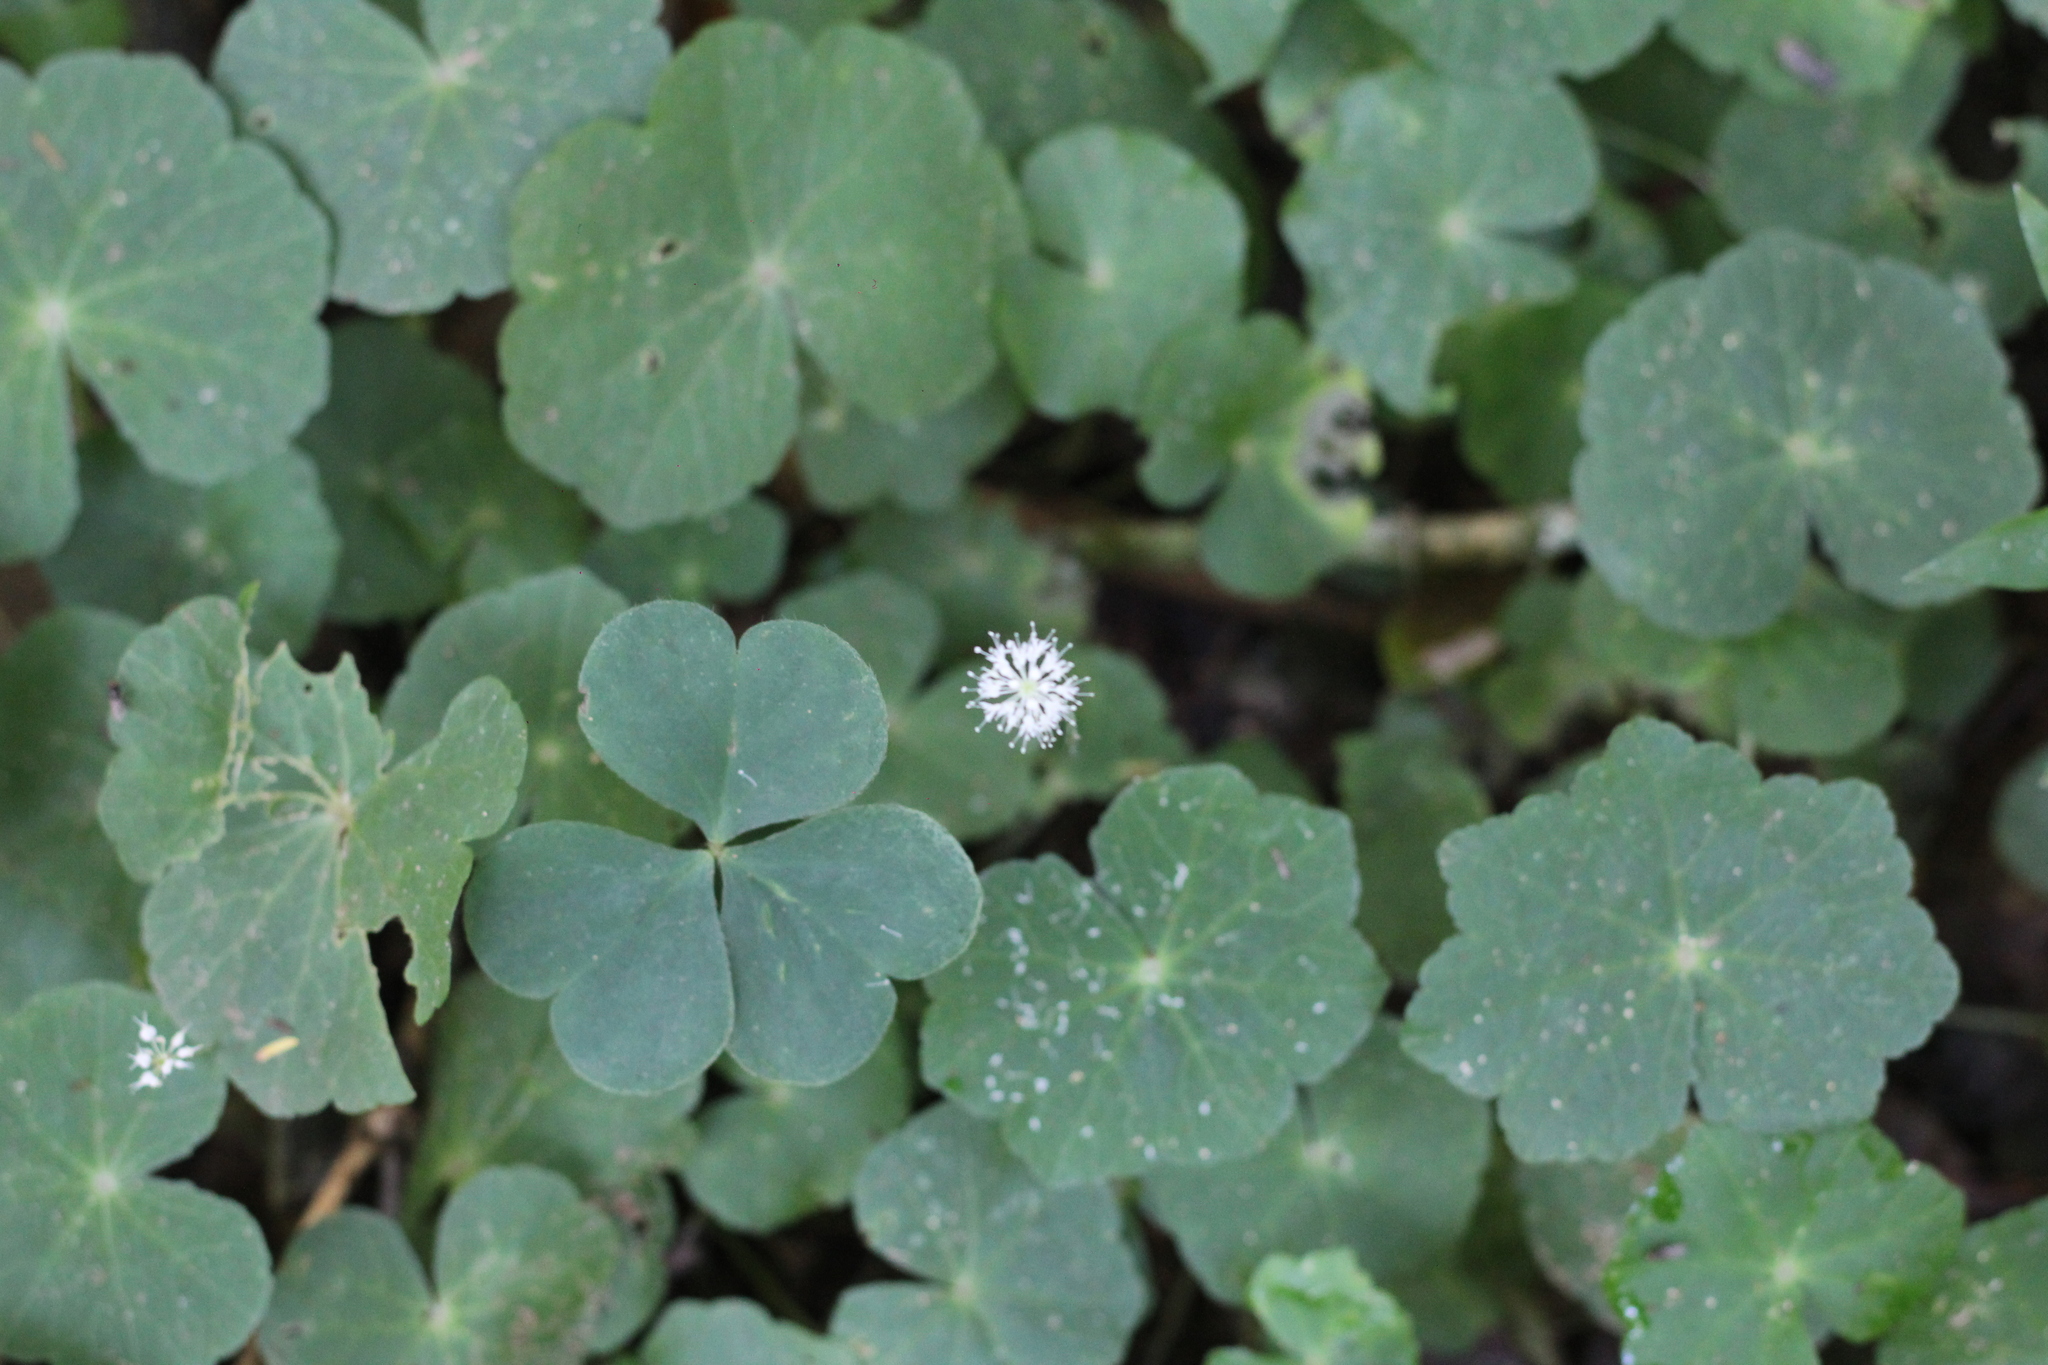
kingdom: Plantae
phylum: Tracheophyta
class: Magnoliopsida
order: Apiales
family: Araliaceae
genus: Hydrocotyle
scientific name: Hydrocotyle leucocephala
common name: Brazilian pennywort
